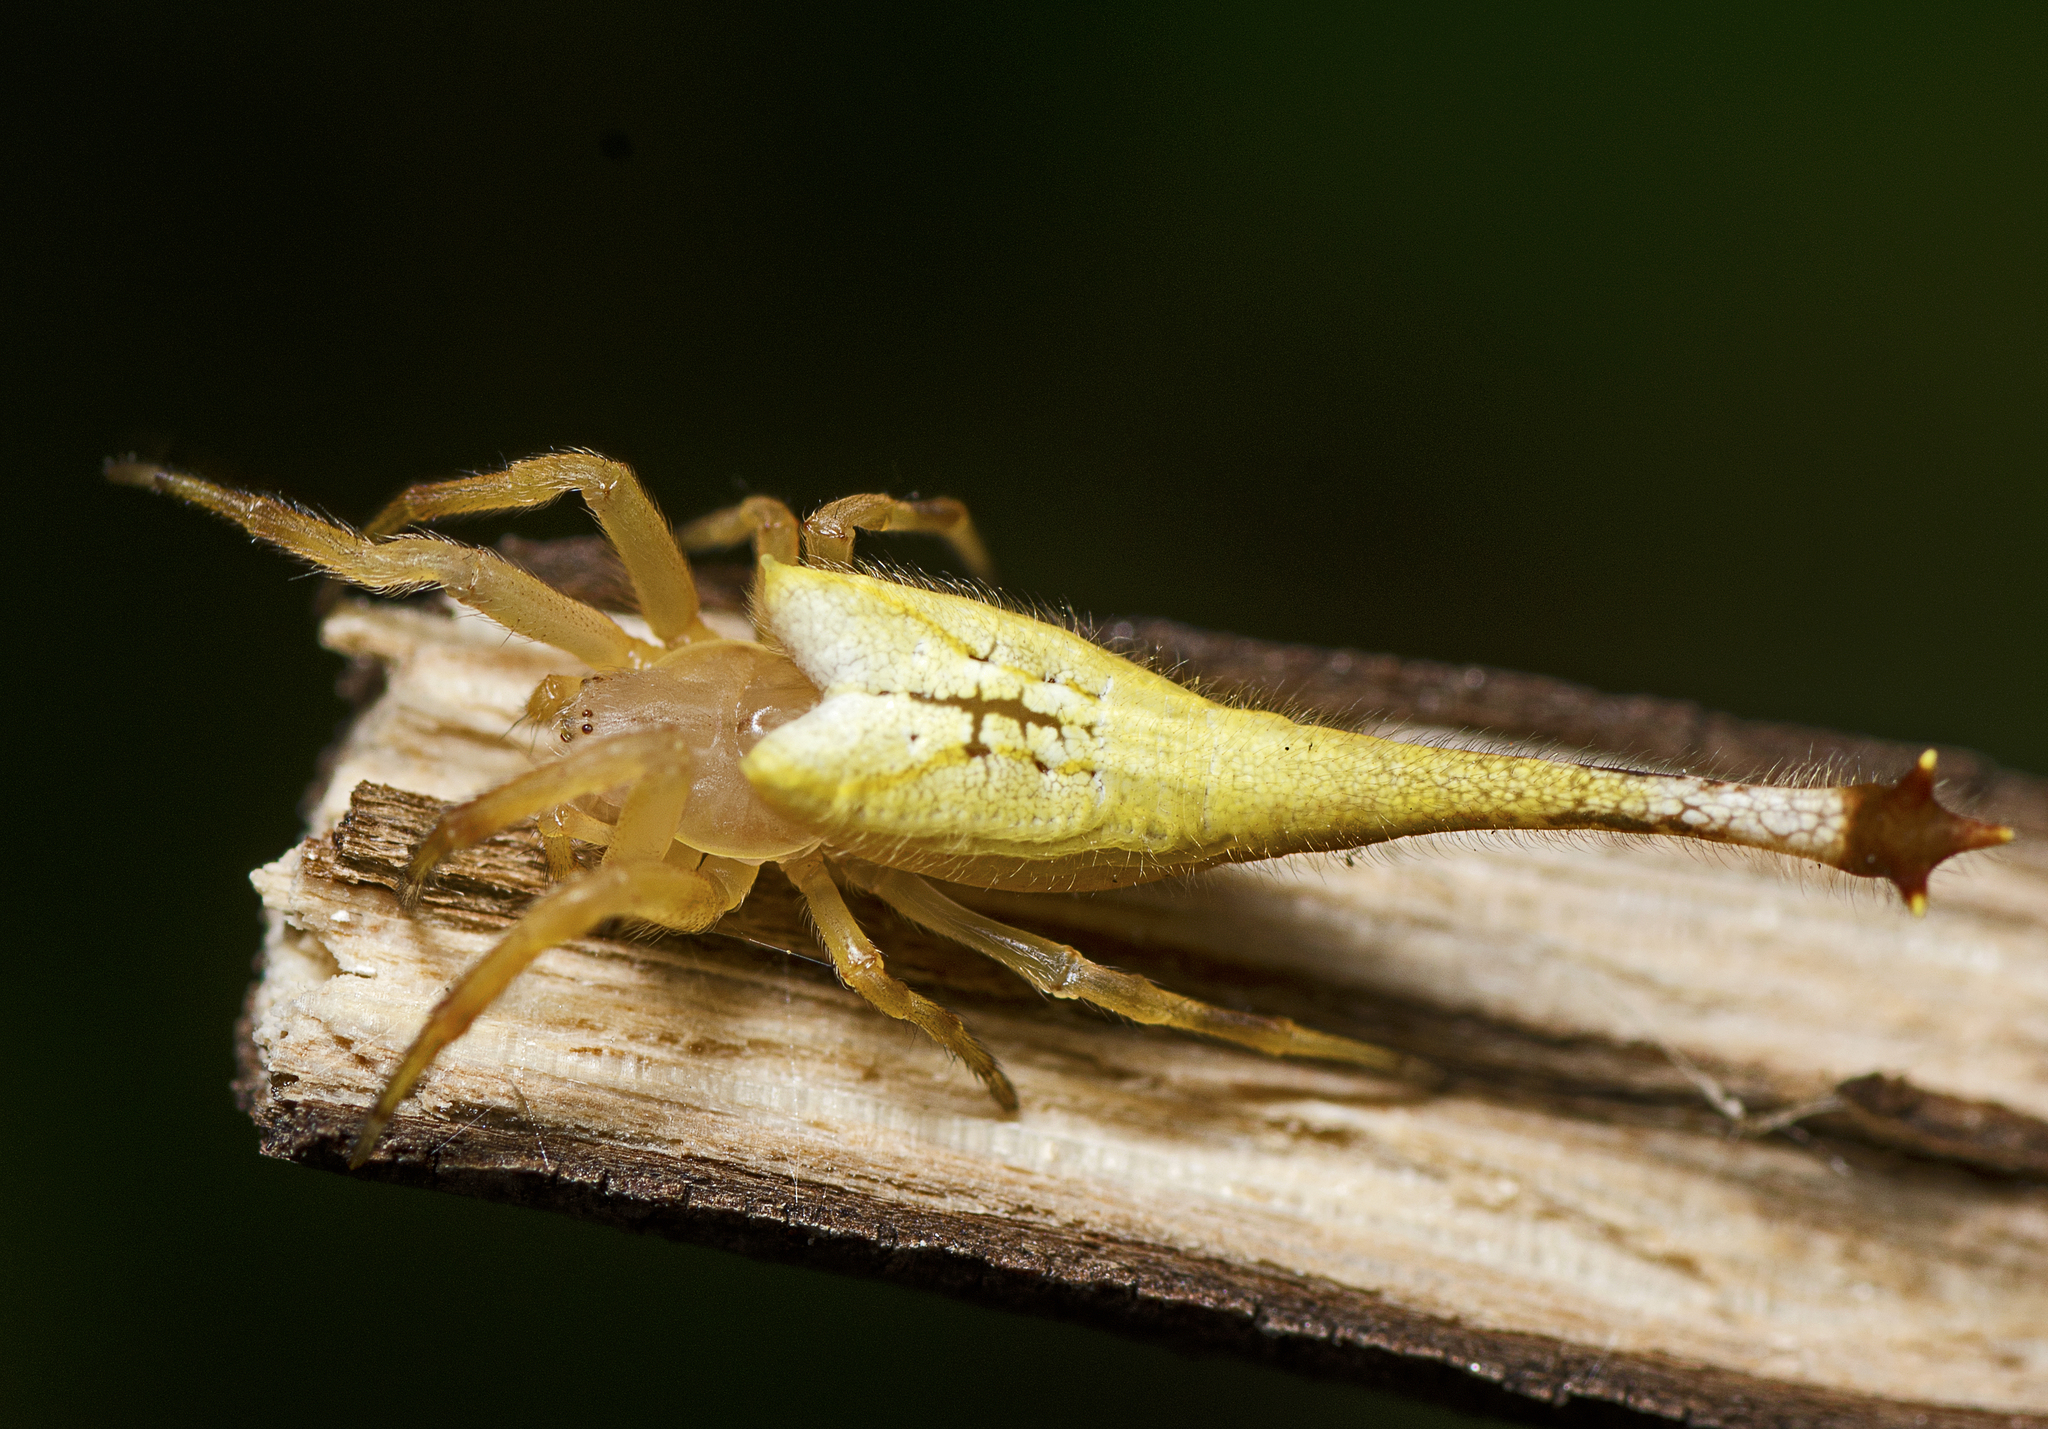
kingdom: Animalia
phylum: Arthropoda
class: Arachnida
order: Araneae
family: Araneidae
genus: Arachnura
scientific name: Arachnura higginsi
